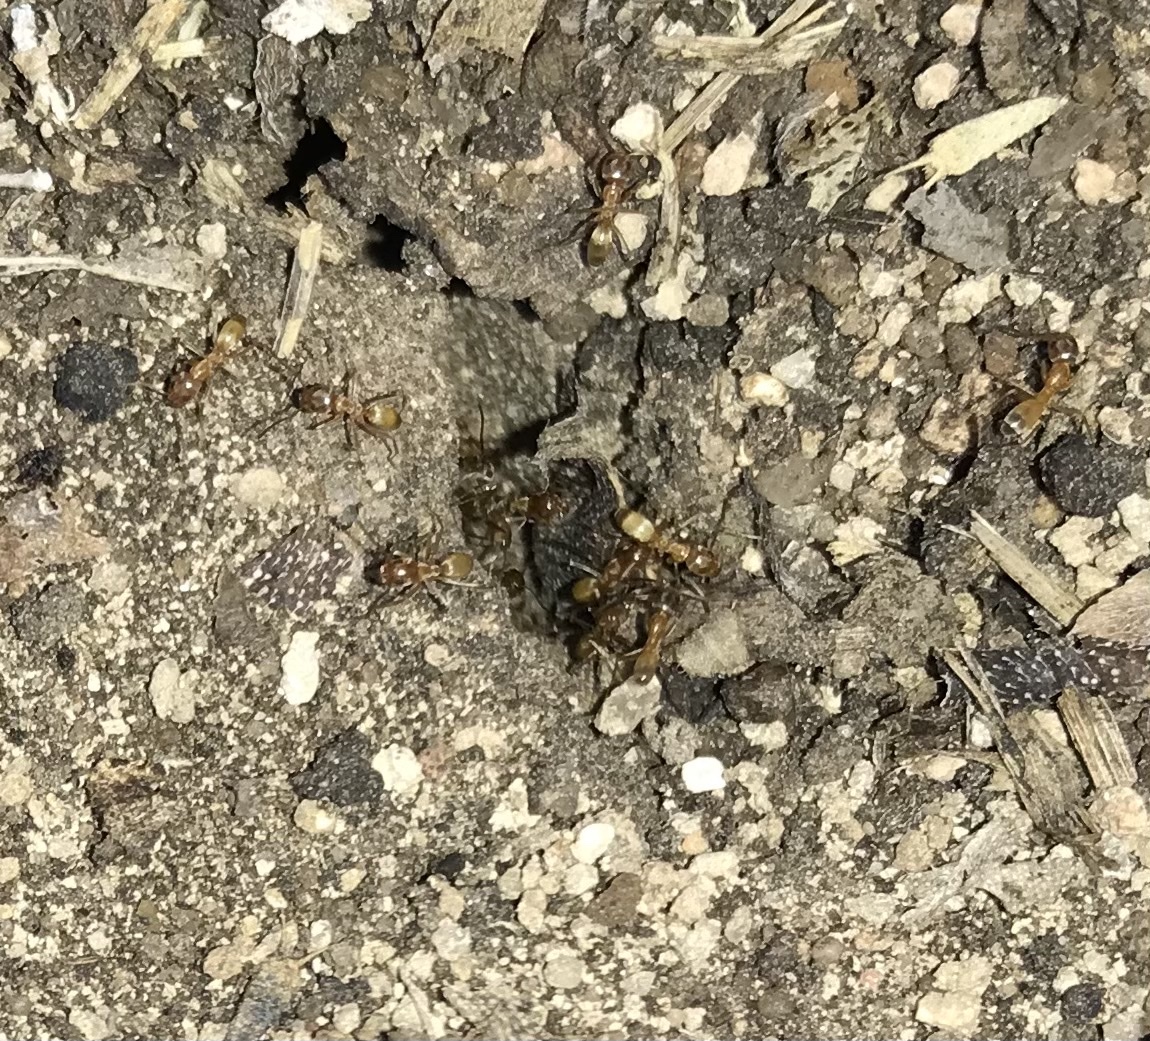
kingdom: Animalia
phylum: Arthropoda
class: Insecta
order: Hymenoptera
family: Formicidae
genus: Dorymyrmex
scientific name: Dorymyrmex flavus
